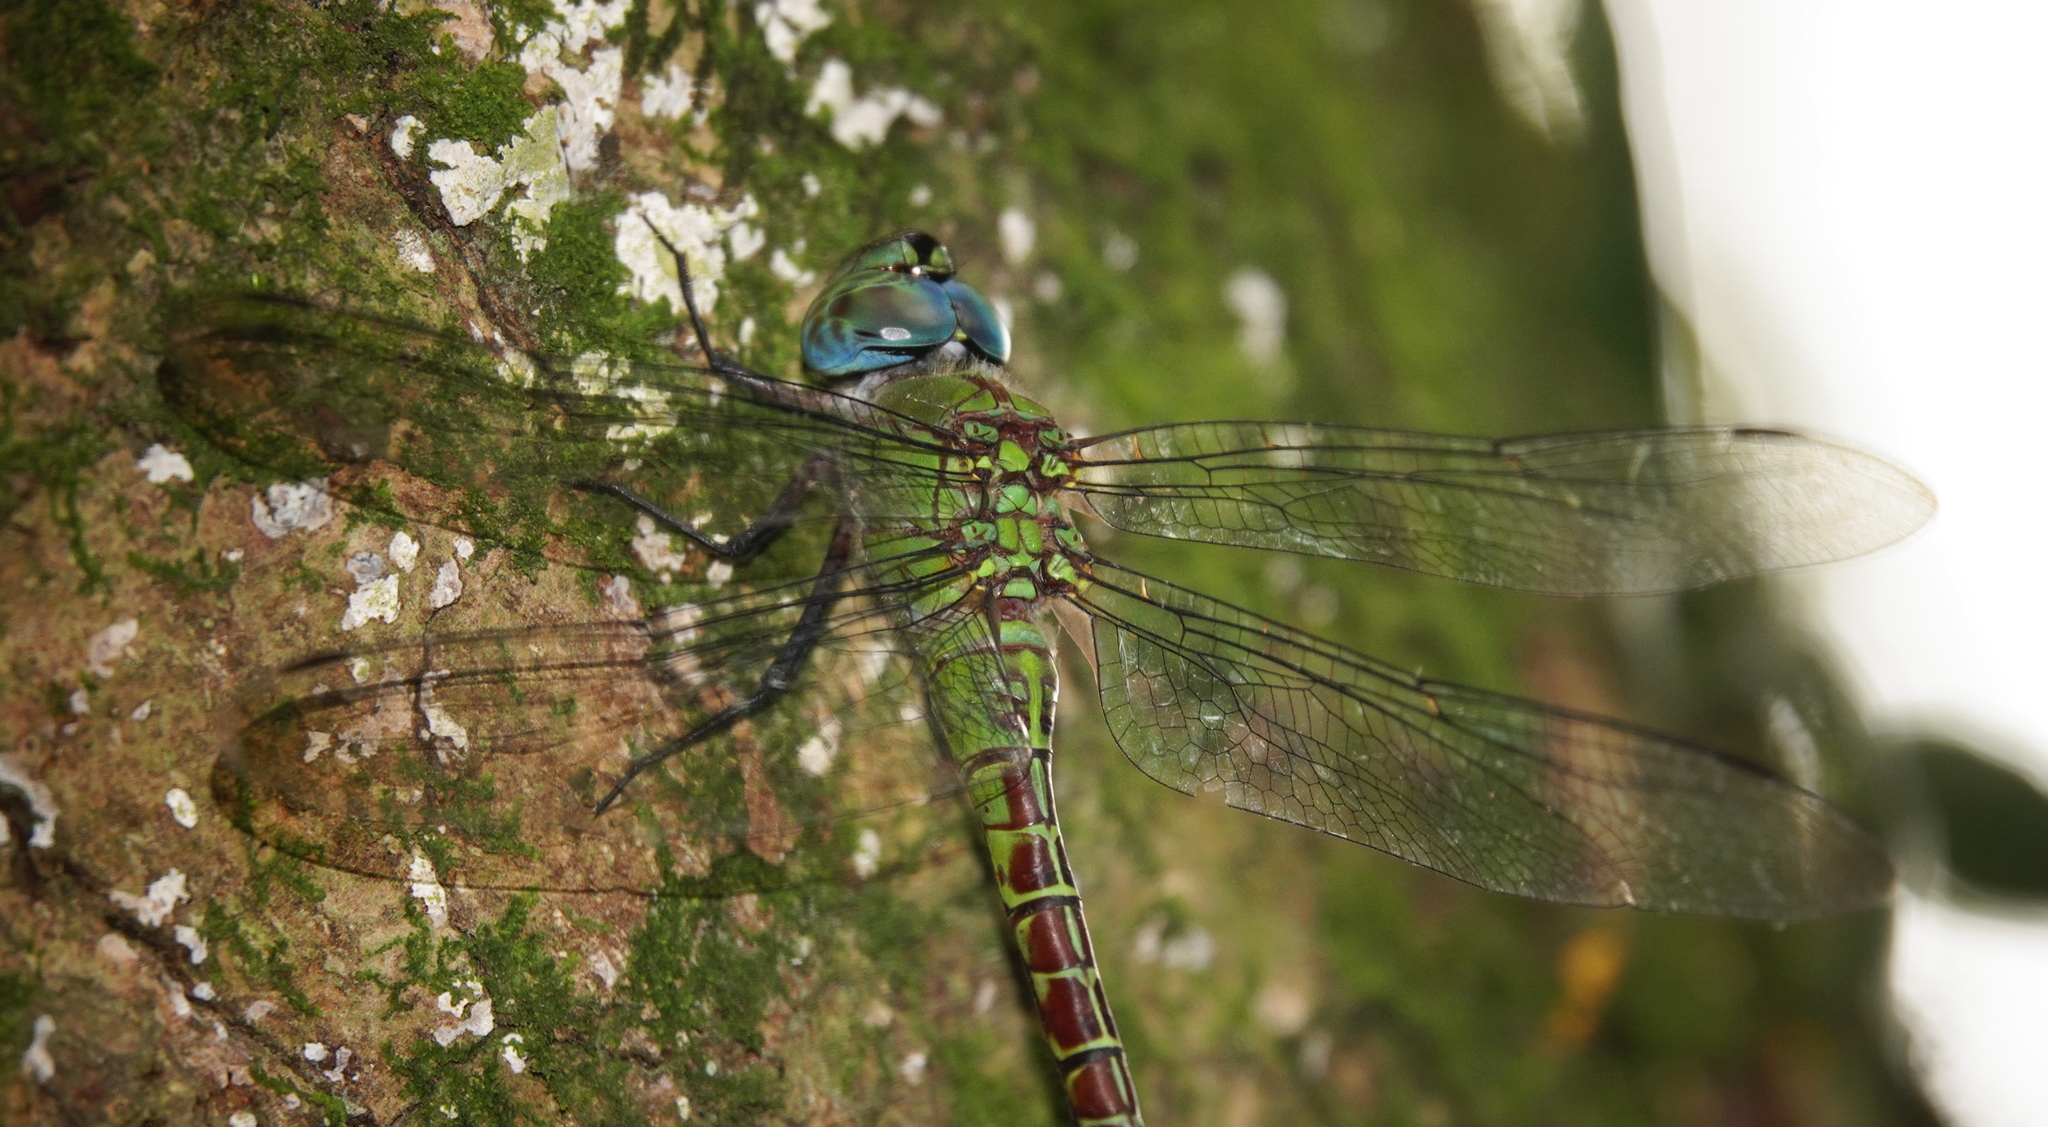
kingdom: Animalia
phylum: Arthropoda
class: Insecta
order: Odonata
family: Aeshnidae
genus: Coryphaeschna
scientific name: Coryphaeschna adnexa
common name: Blue-faced darner
